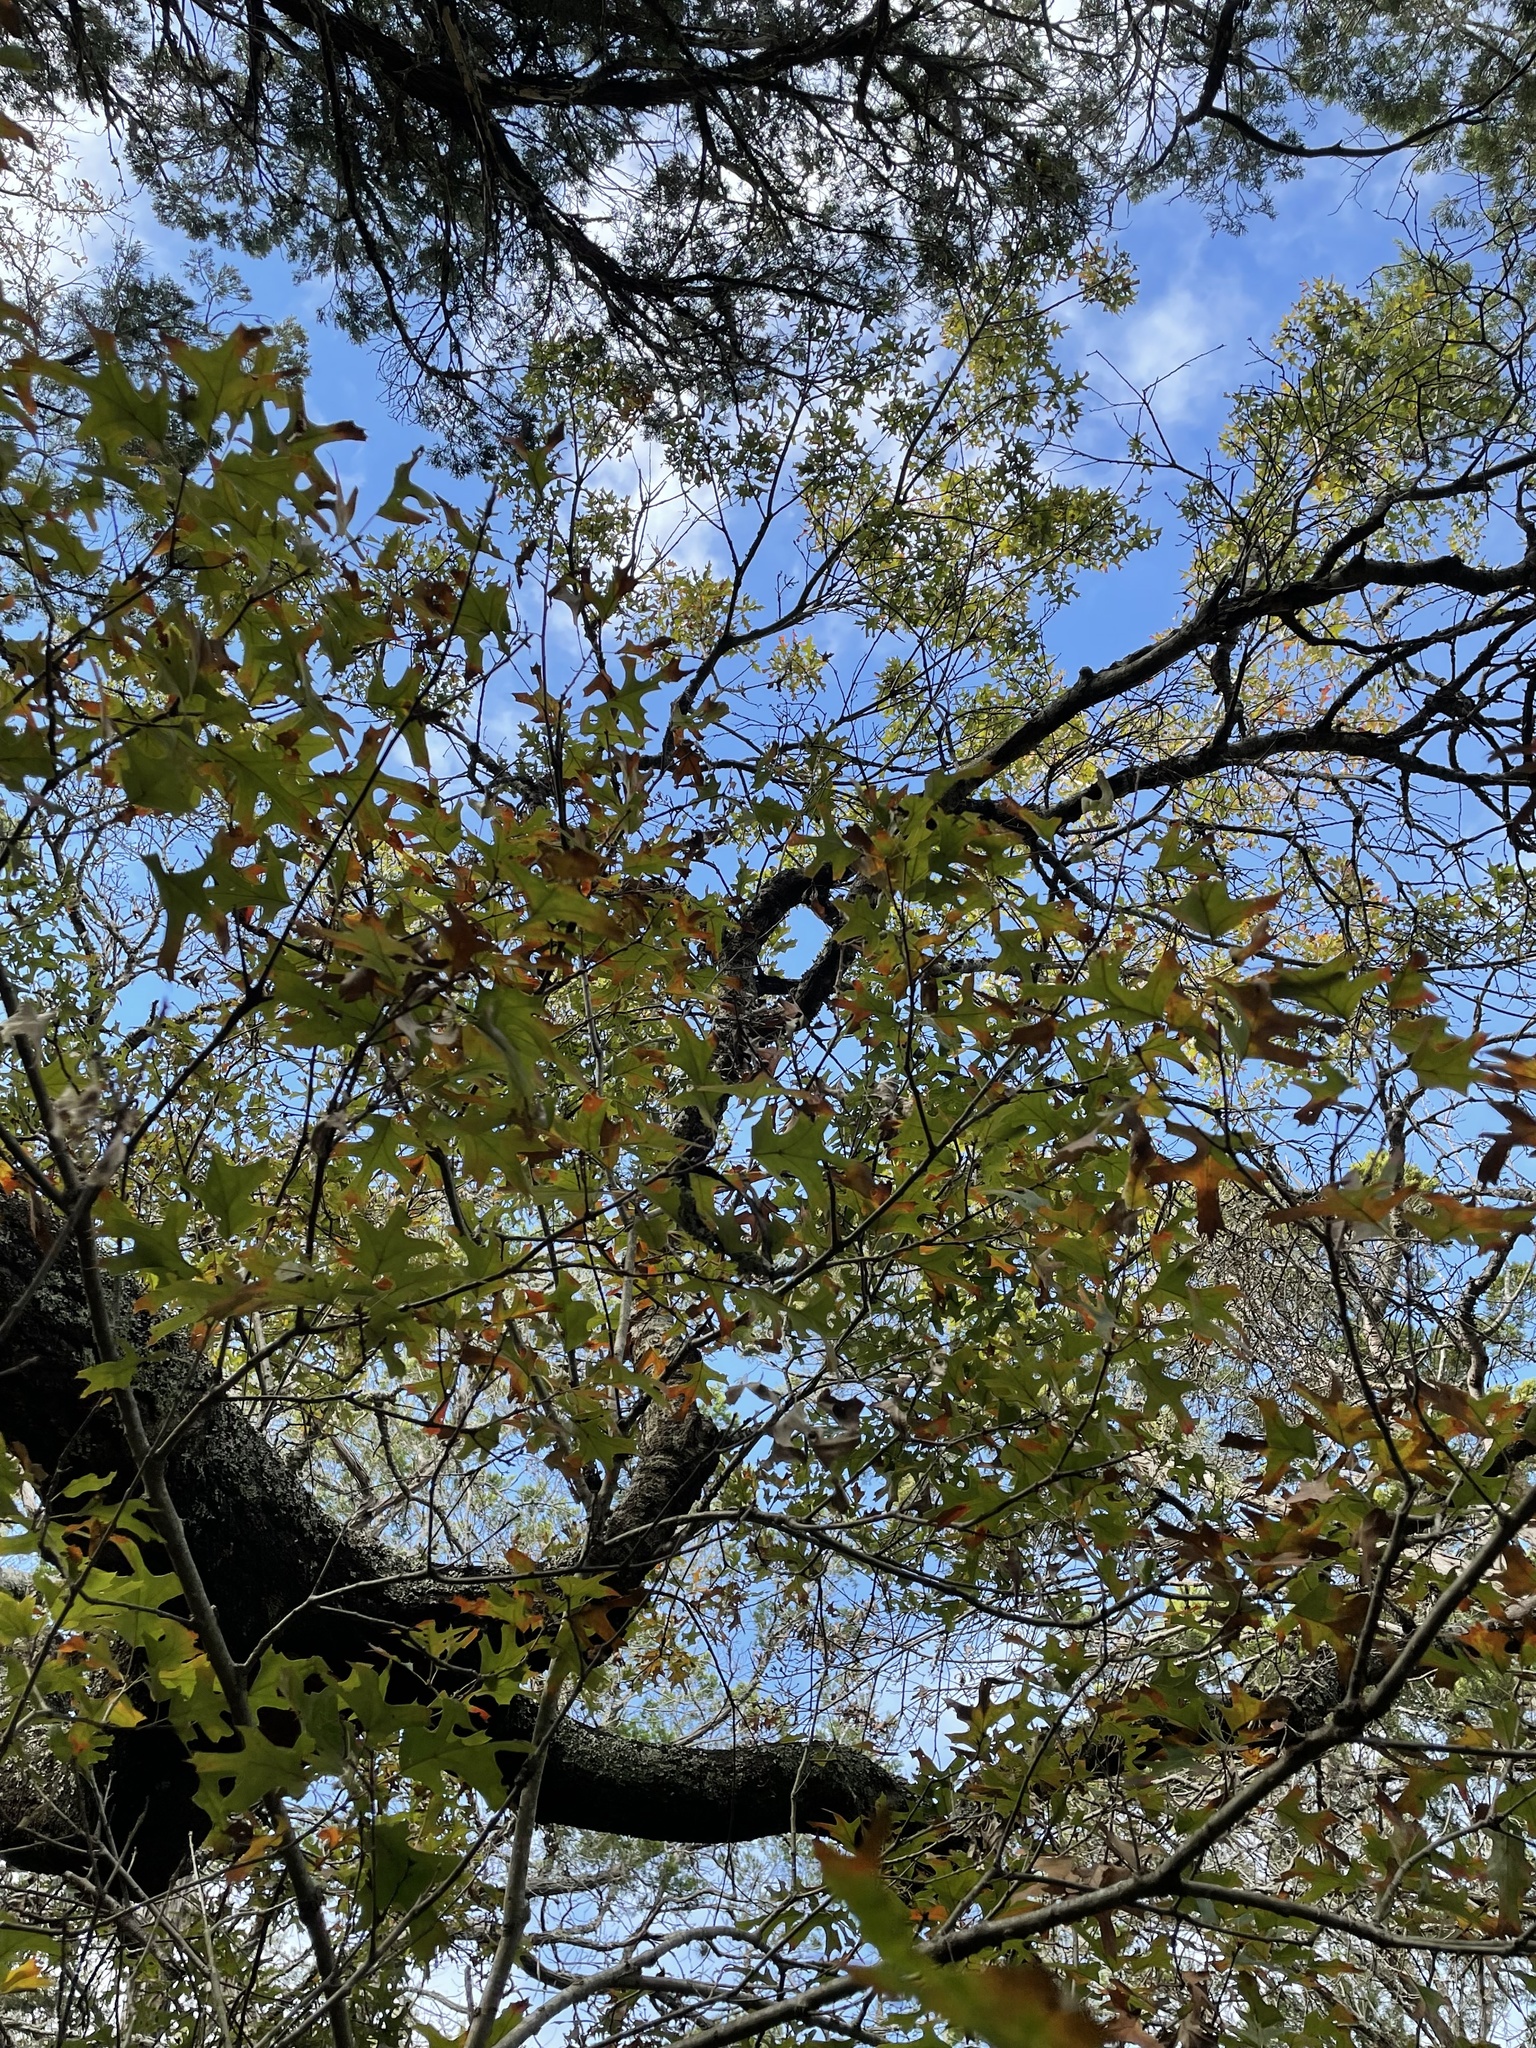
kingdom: Plantae
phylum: Tracheophyta
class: Magnoliopsida
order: Fagales
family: Fagaceae
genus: Quercus
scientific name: Quercus buckleyi
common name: Buckley oak
